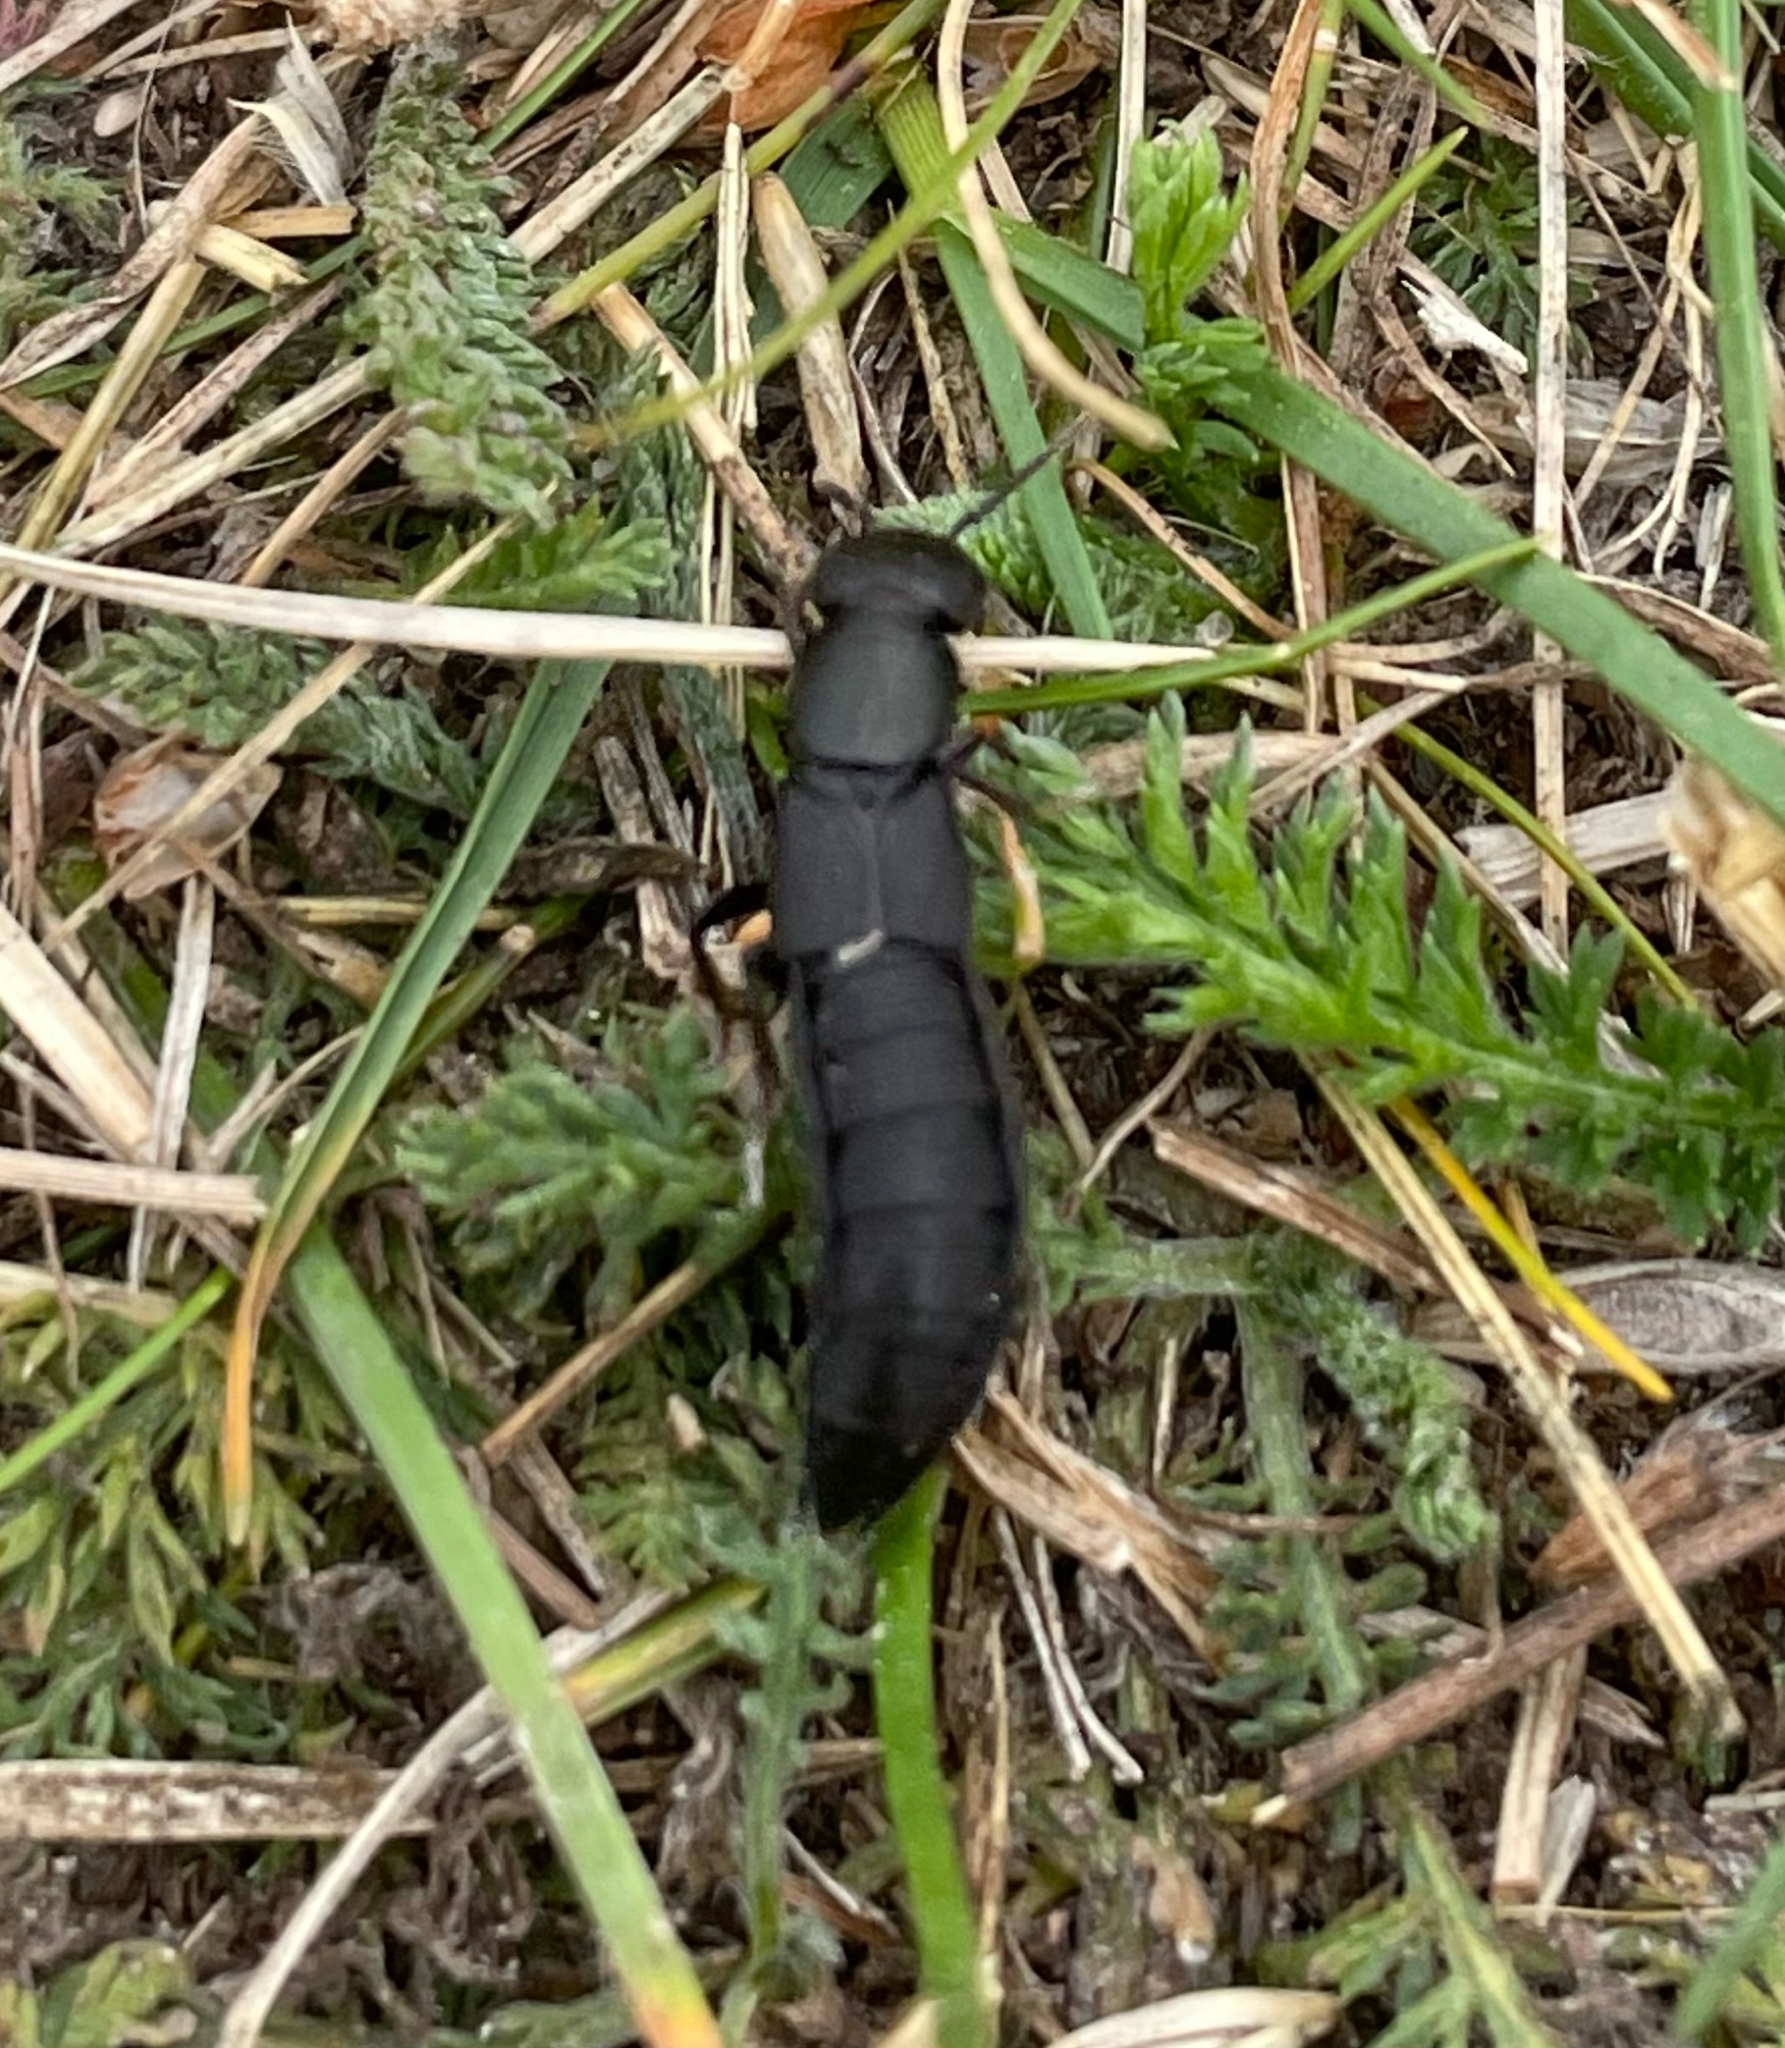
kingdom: Animalia
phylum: Arthropoda
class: Insecta
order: Coleoptera
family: Staphylinidae
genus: Ocypus
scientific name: Ocypus olens
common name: Devil's coach-horse
